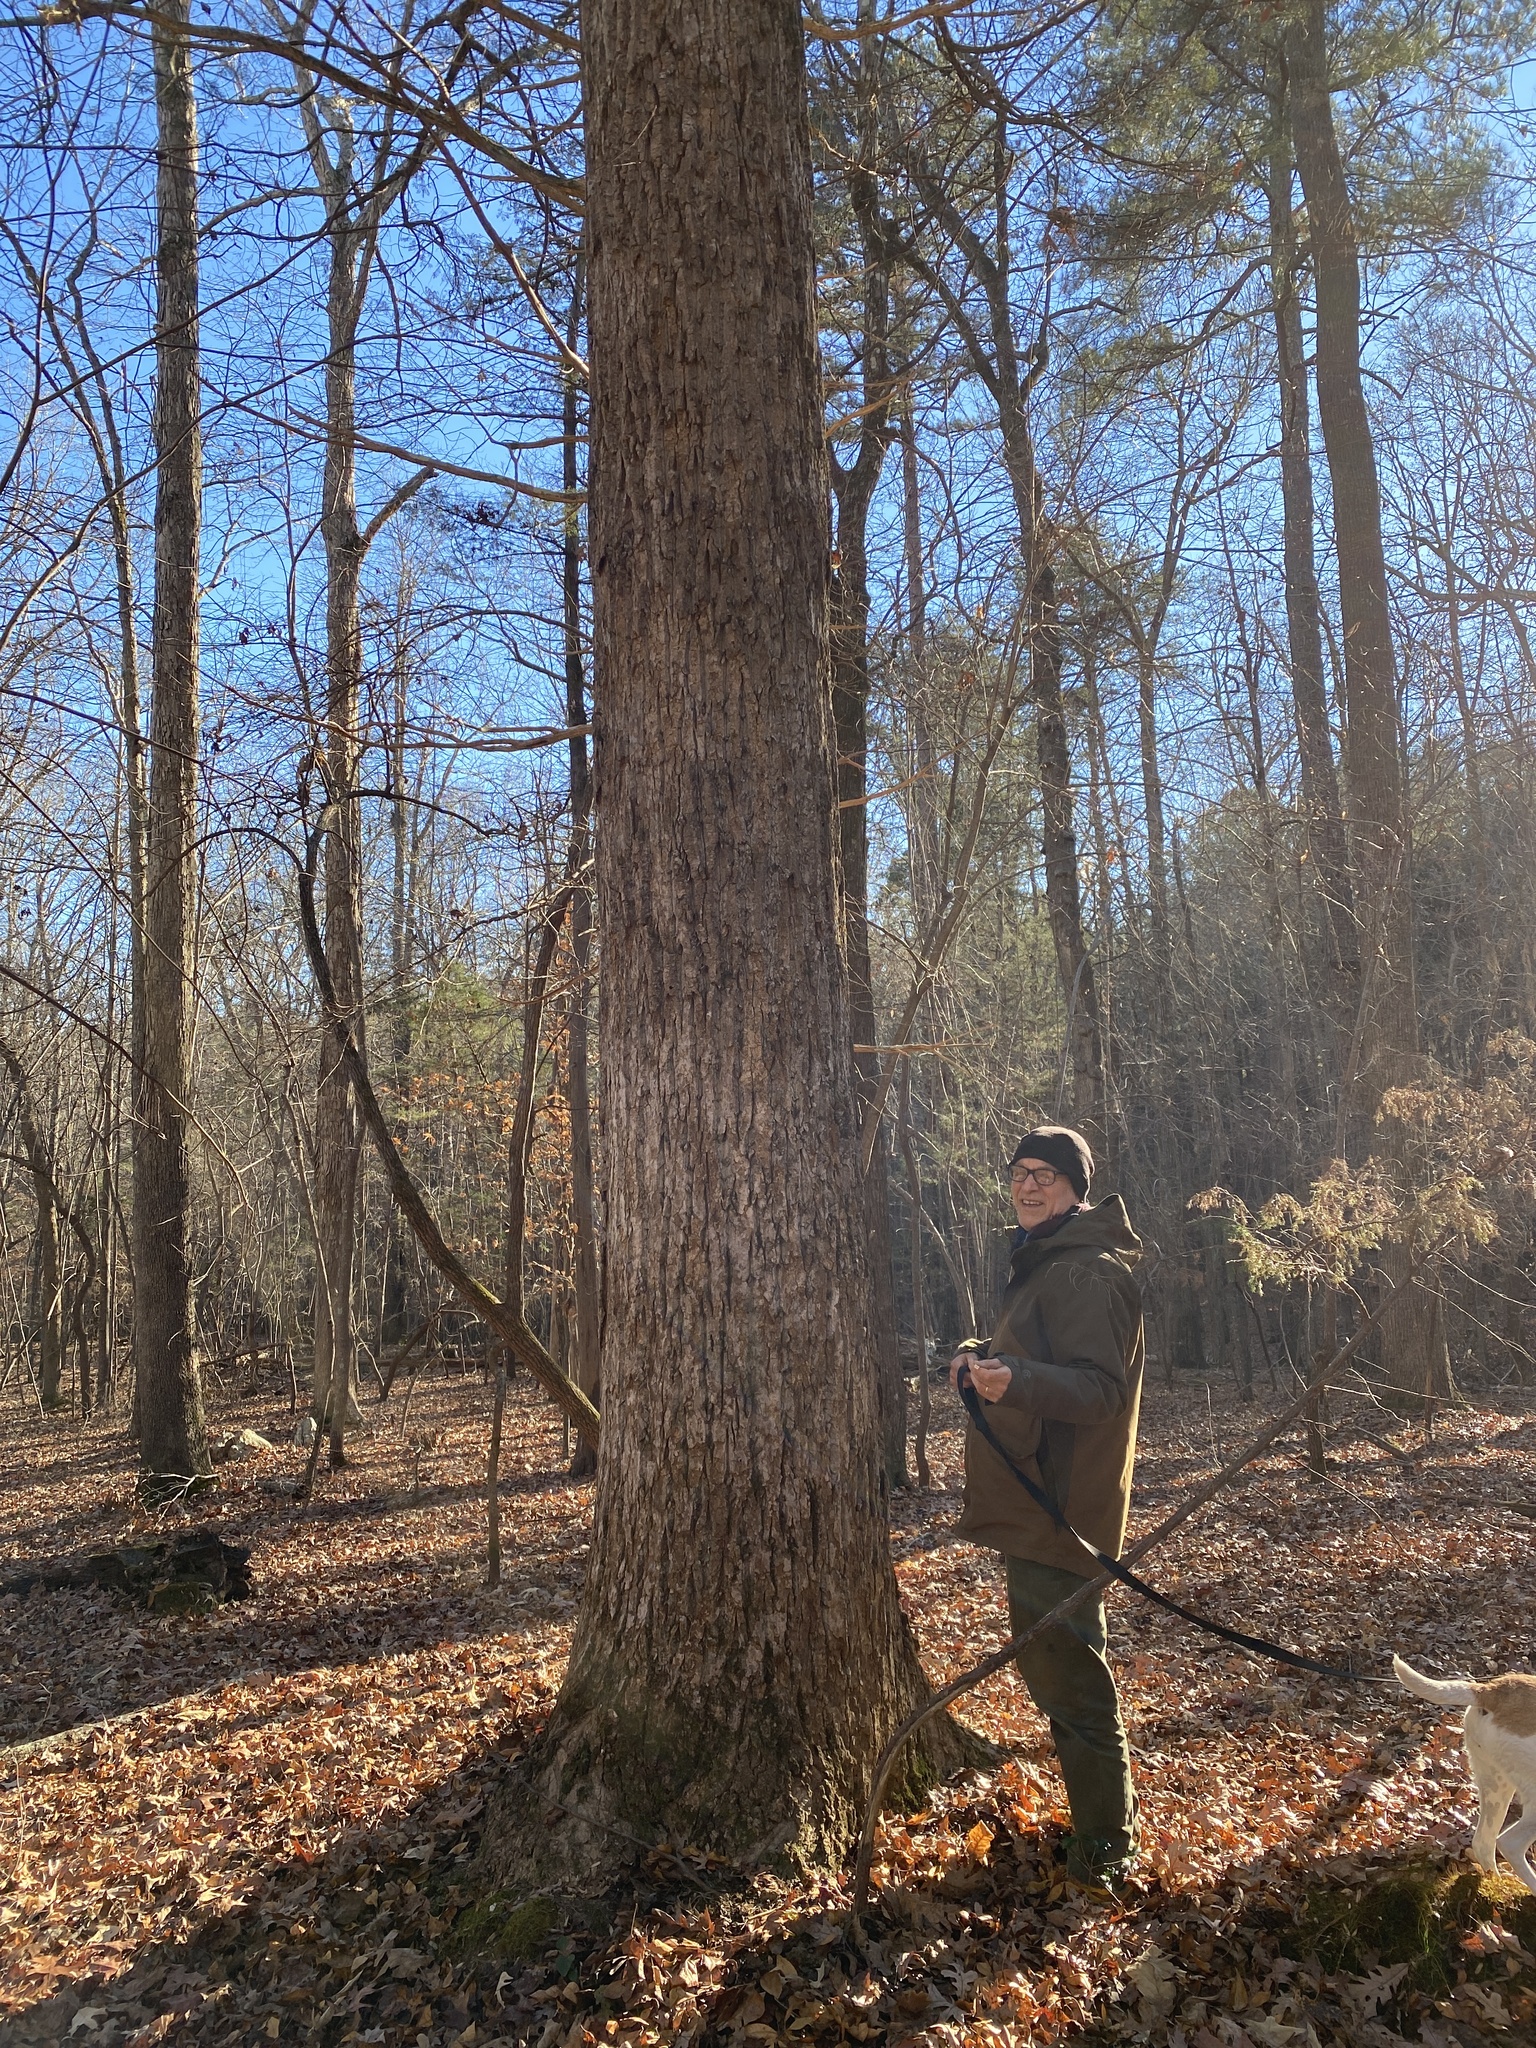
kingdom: Plantae
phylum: Tracheophyta
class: Magnoliopsida
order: Magnoliales
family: Magnoliaceae
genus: Liriodendron
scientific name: Liriodendron tulipifera
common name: Tulip tree
